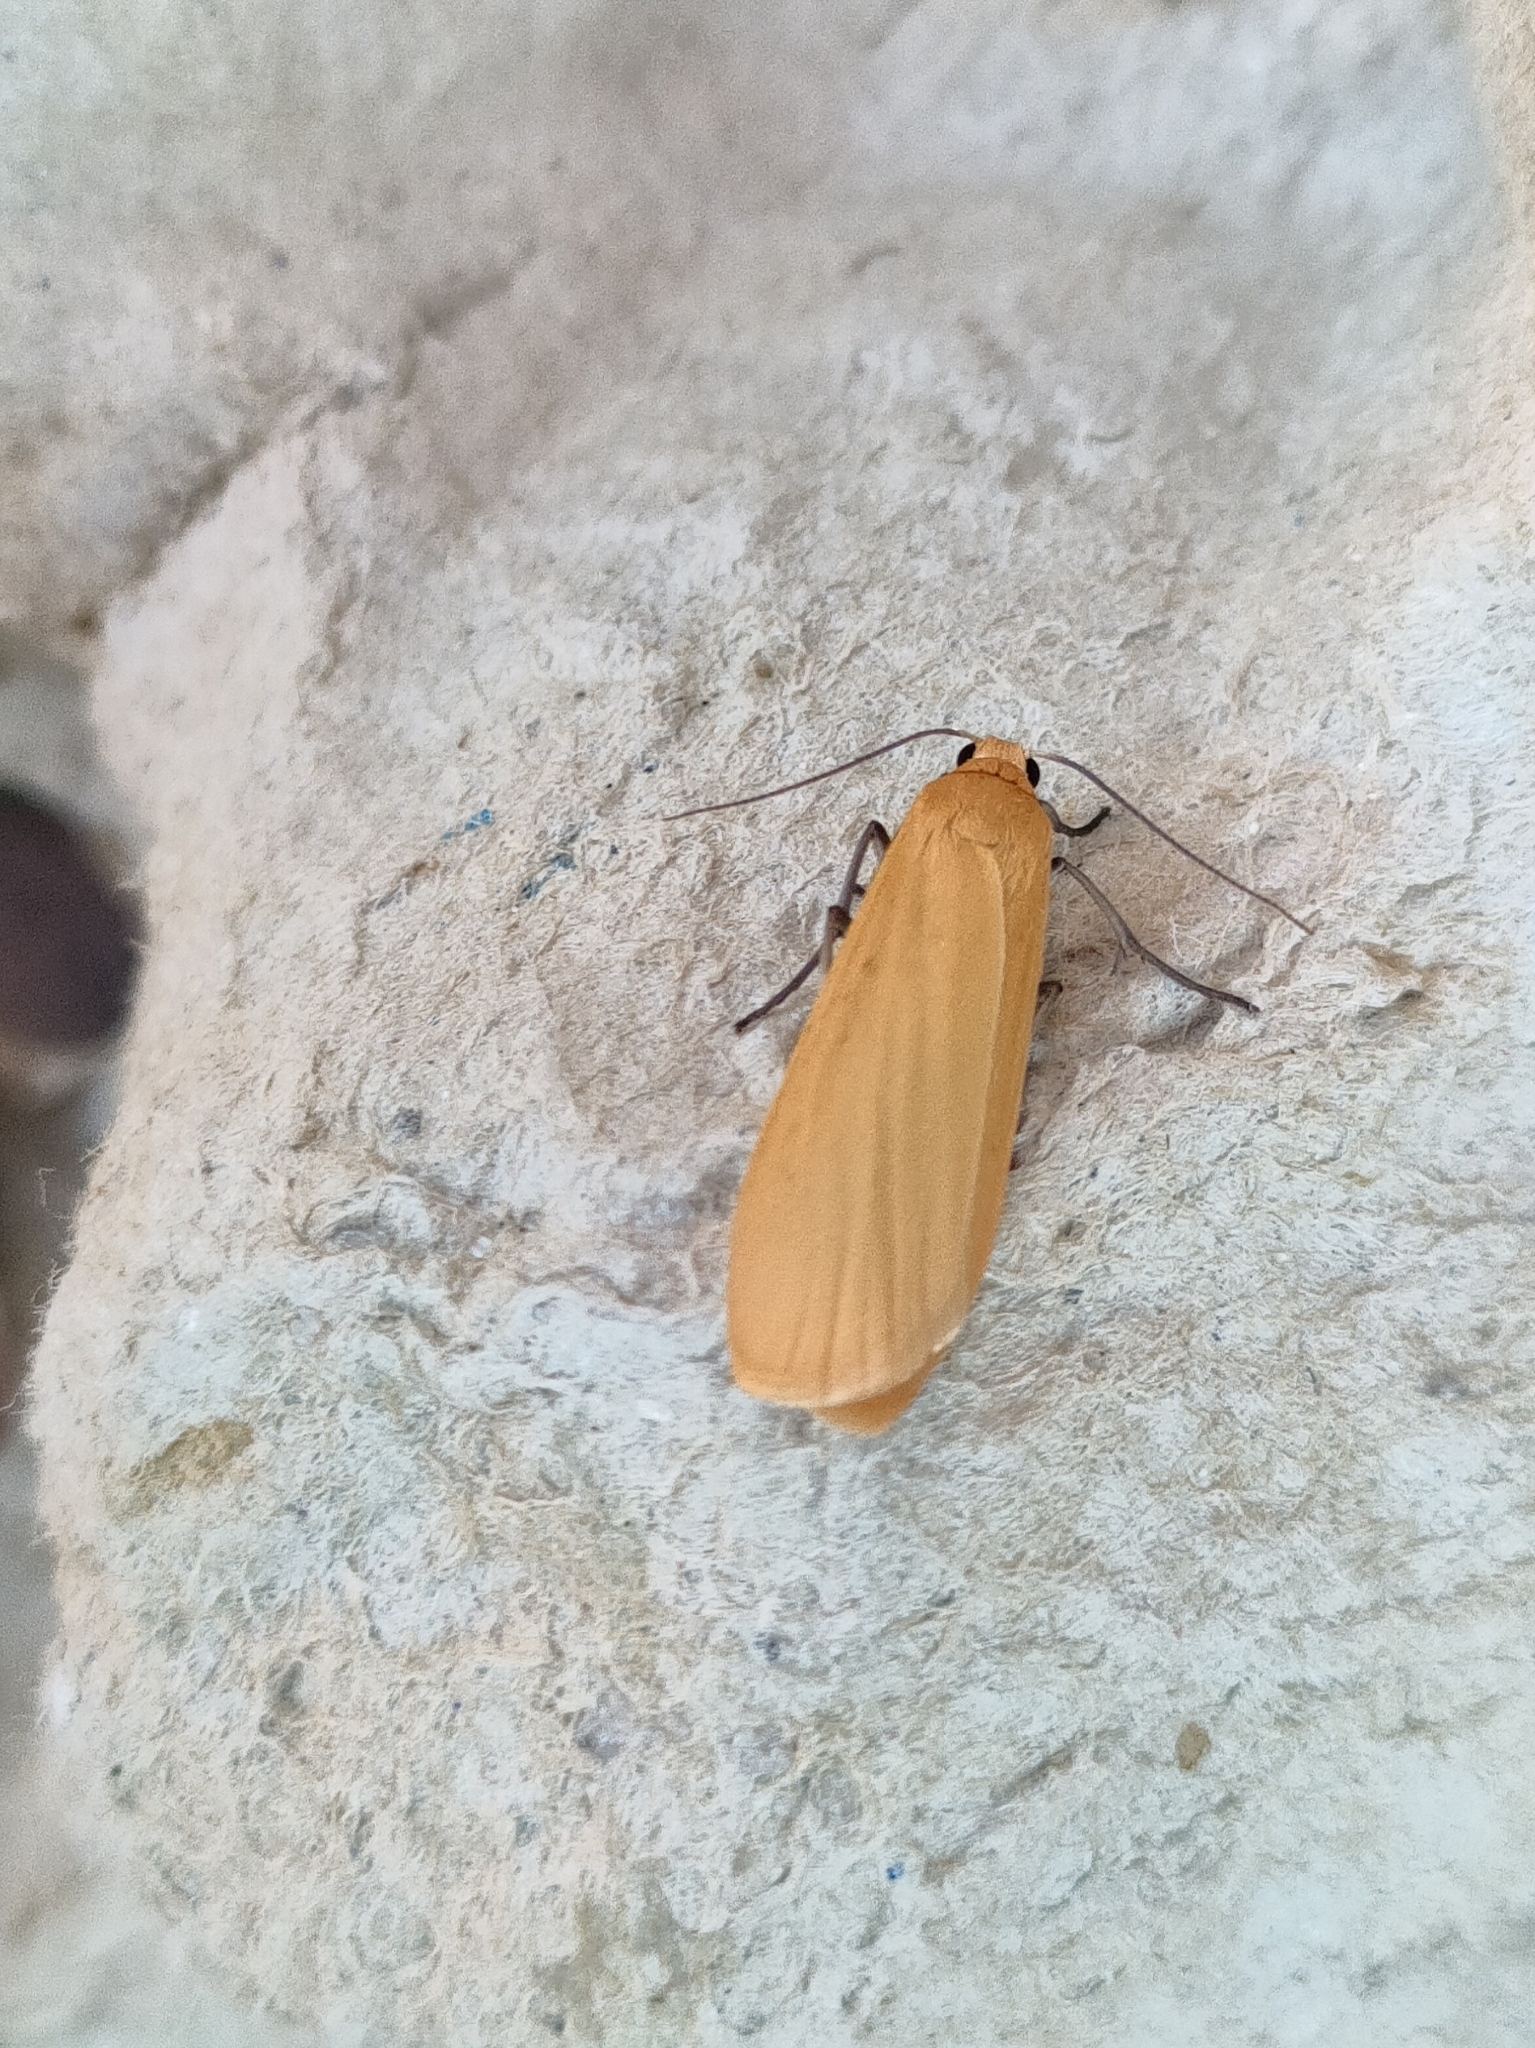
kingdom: Animalia
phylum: Arthropoda
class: Insecta
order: Lepidoptera
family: Erebidae
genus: Wittia
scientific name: Wittia sororcula
